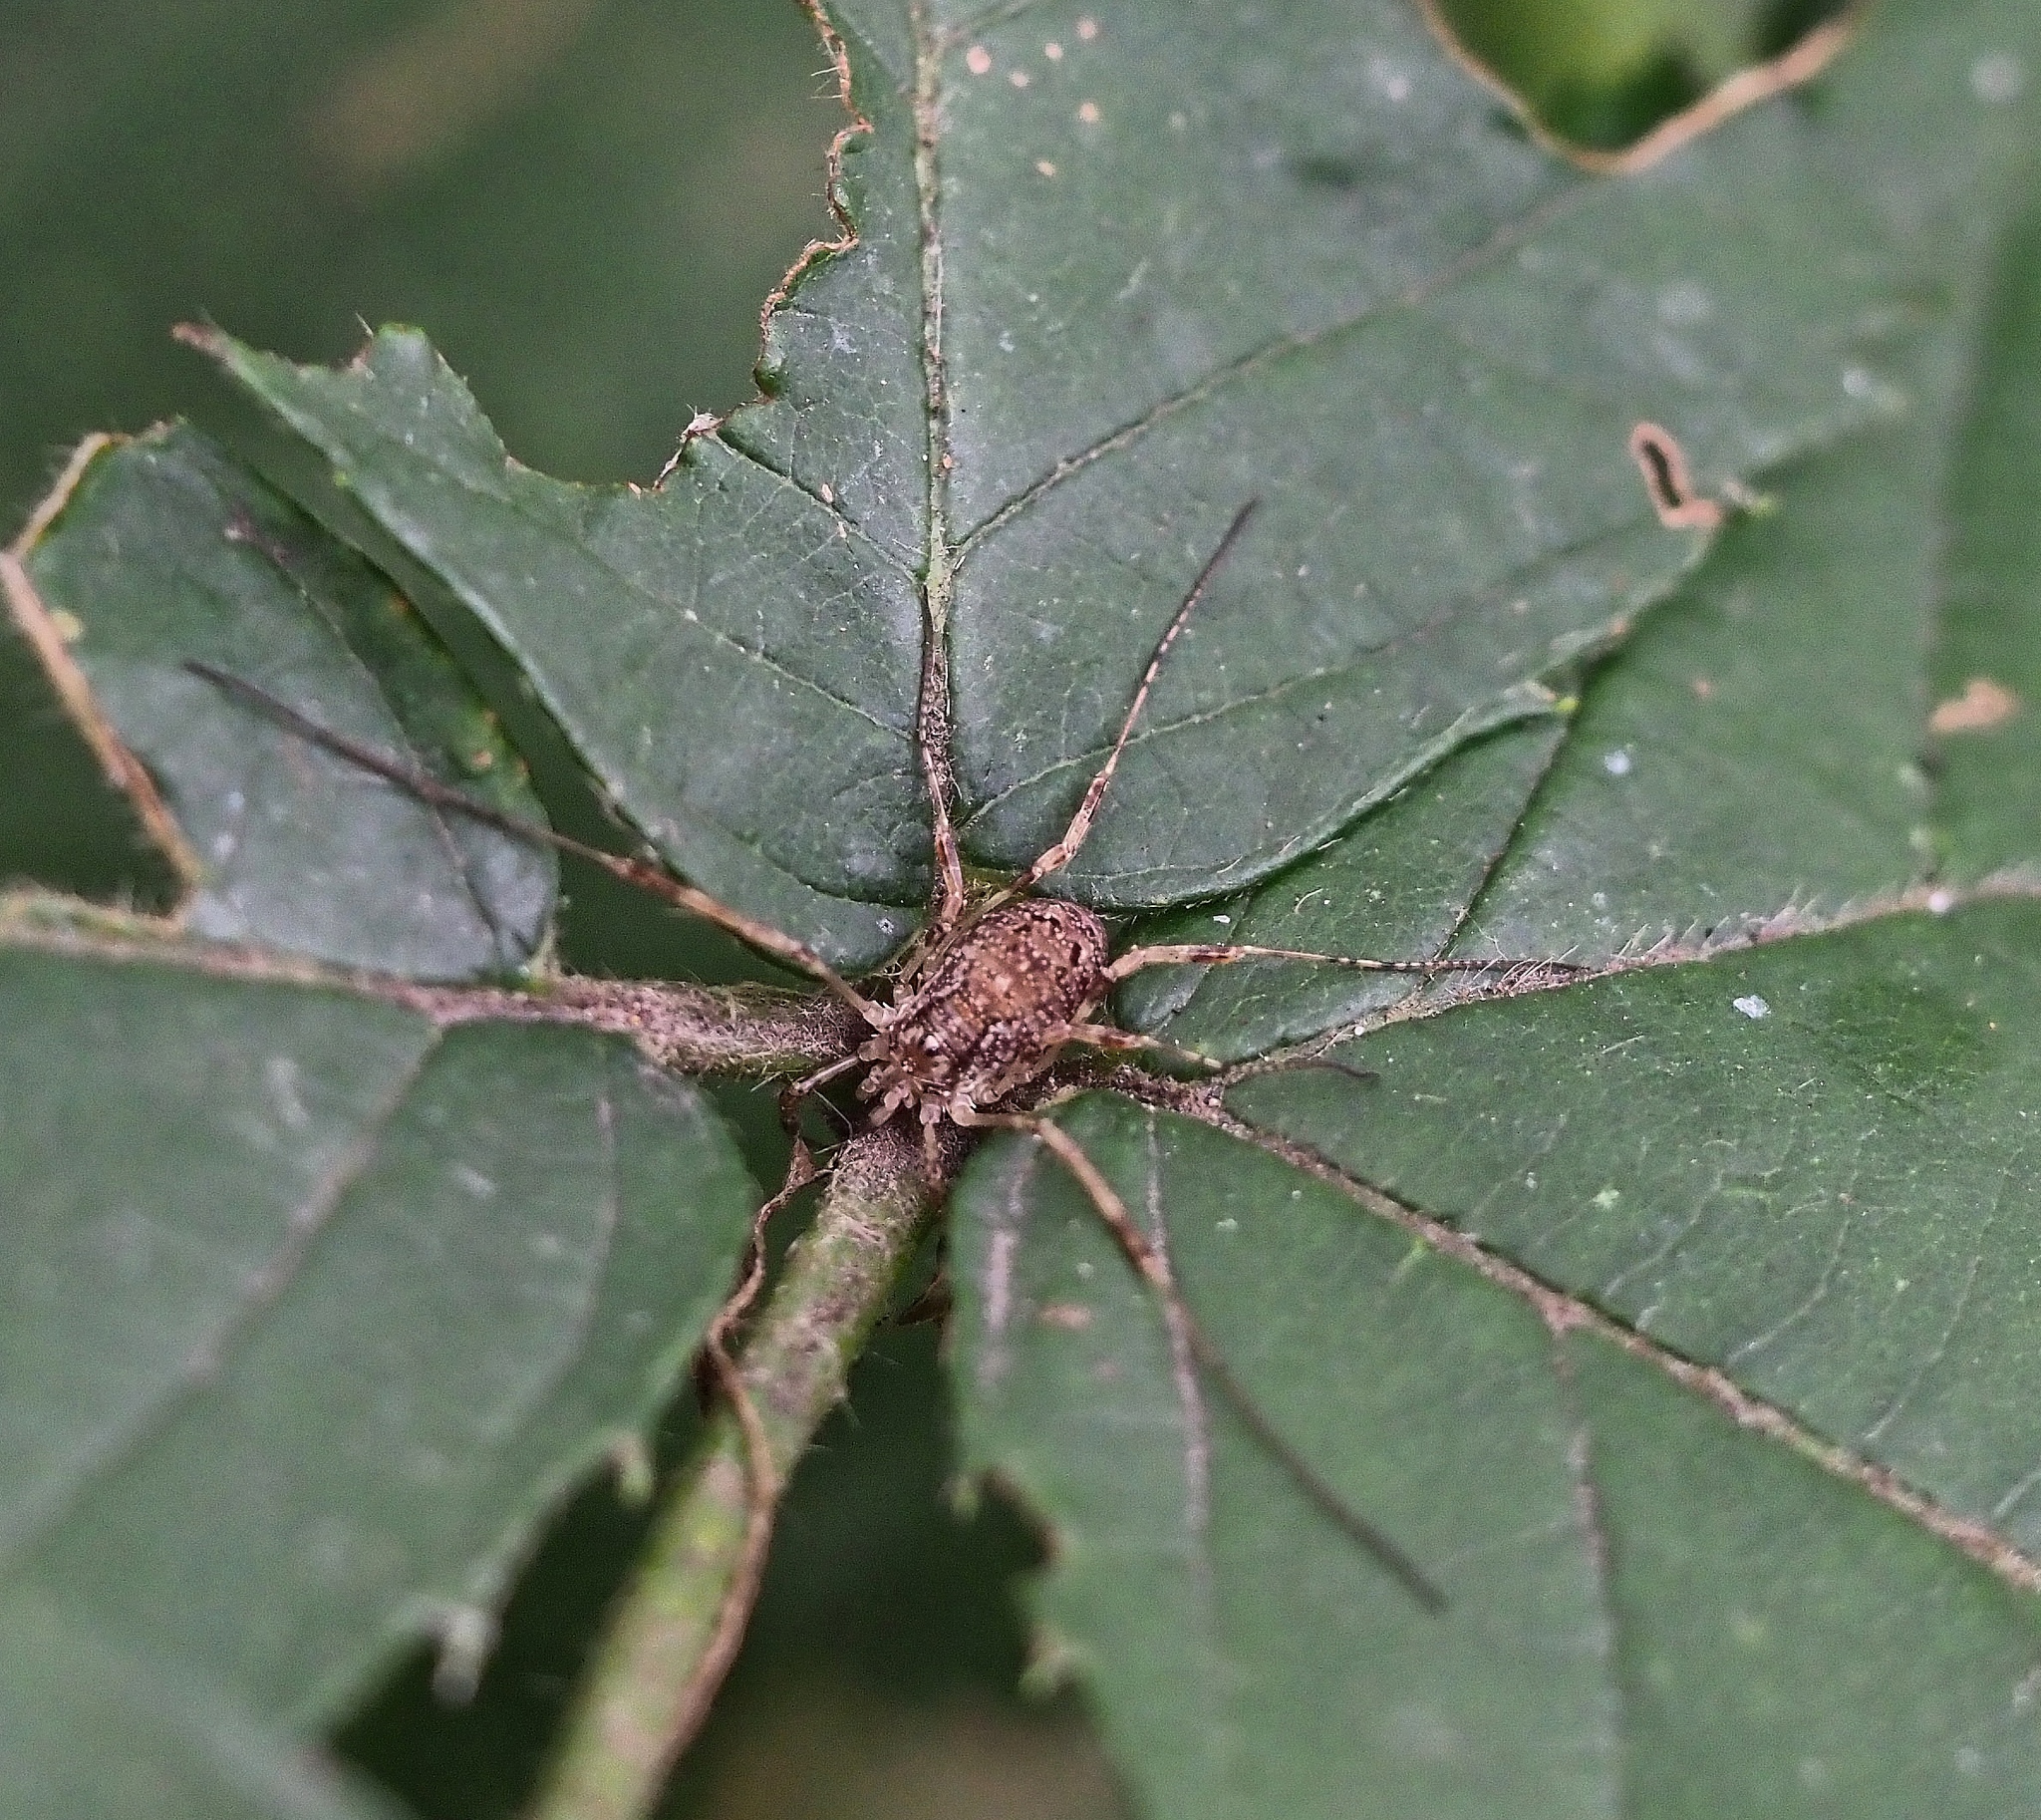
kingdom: Animalia
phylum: Arthropoda
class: Arachnida
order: Opiliones
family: Phalangiidae
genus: Paroligolophus
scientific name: Paroligolophus agrestis
